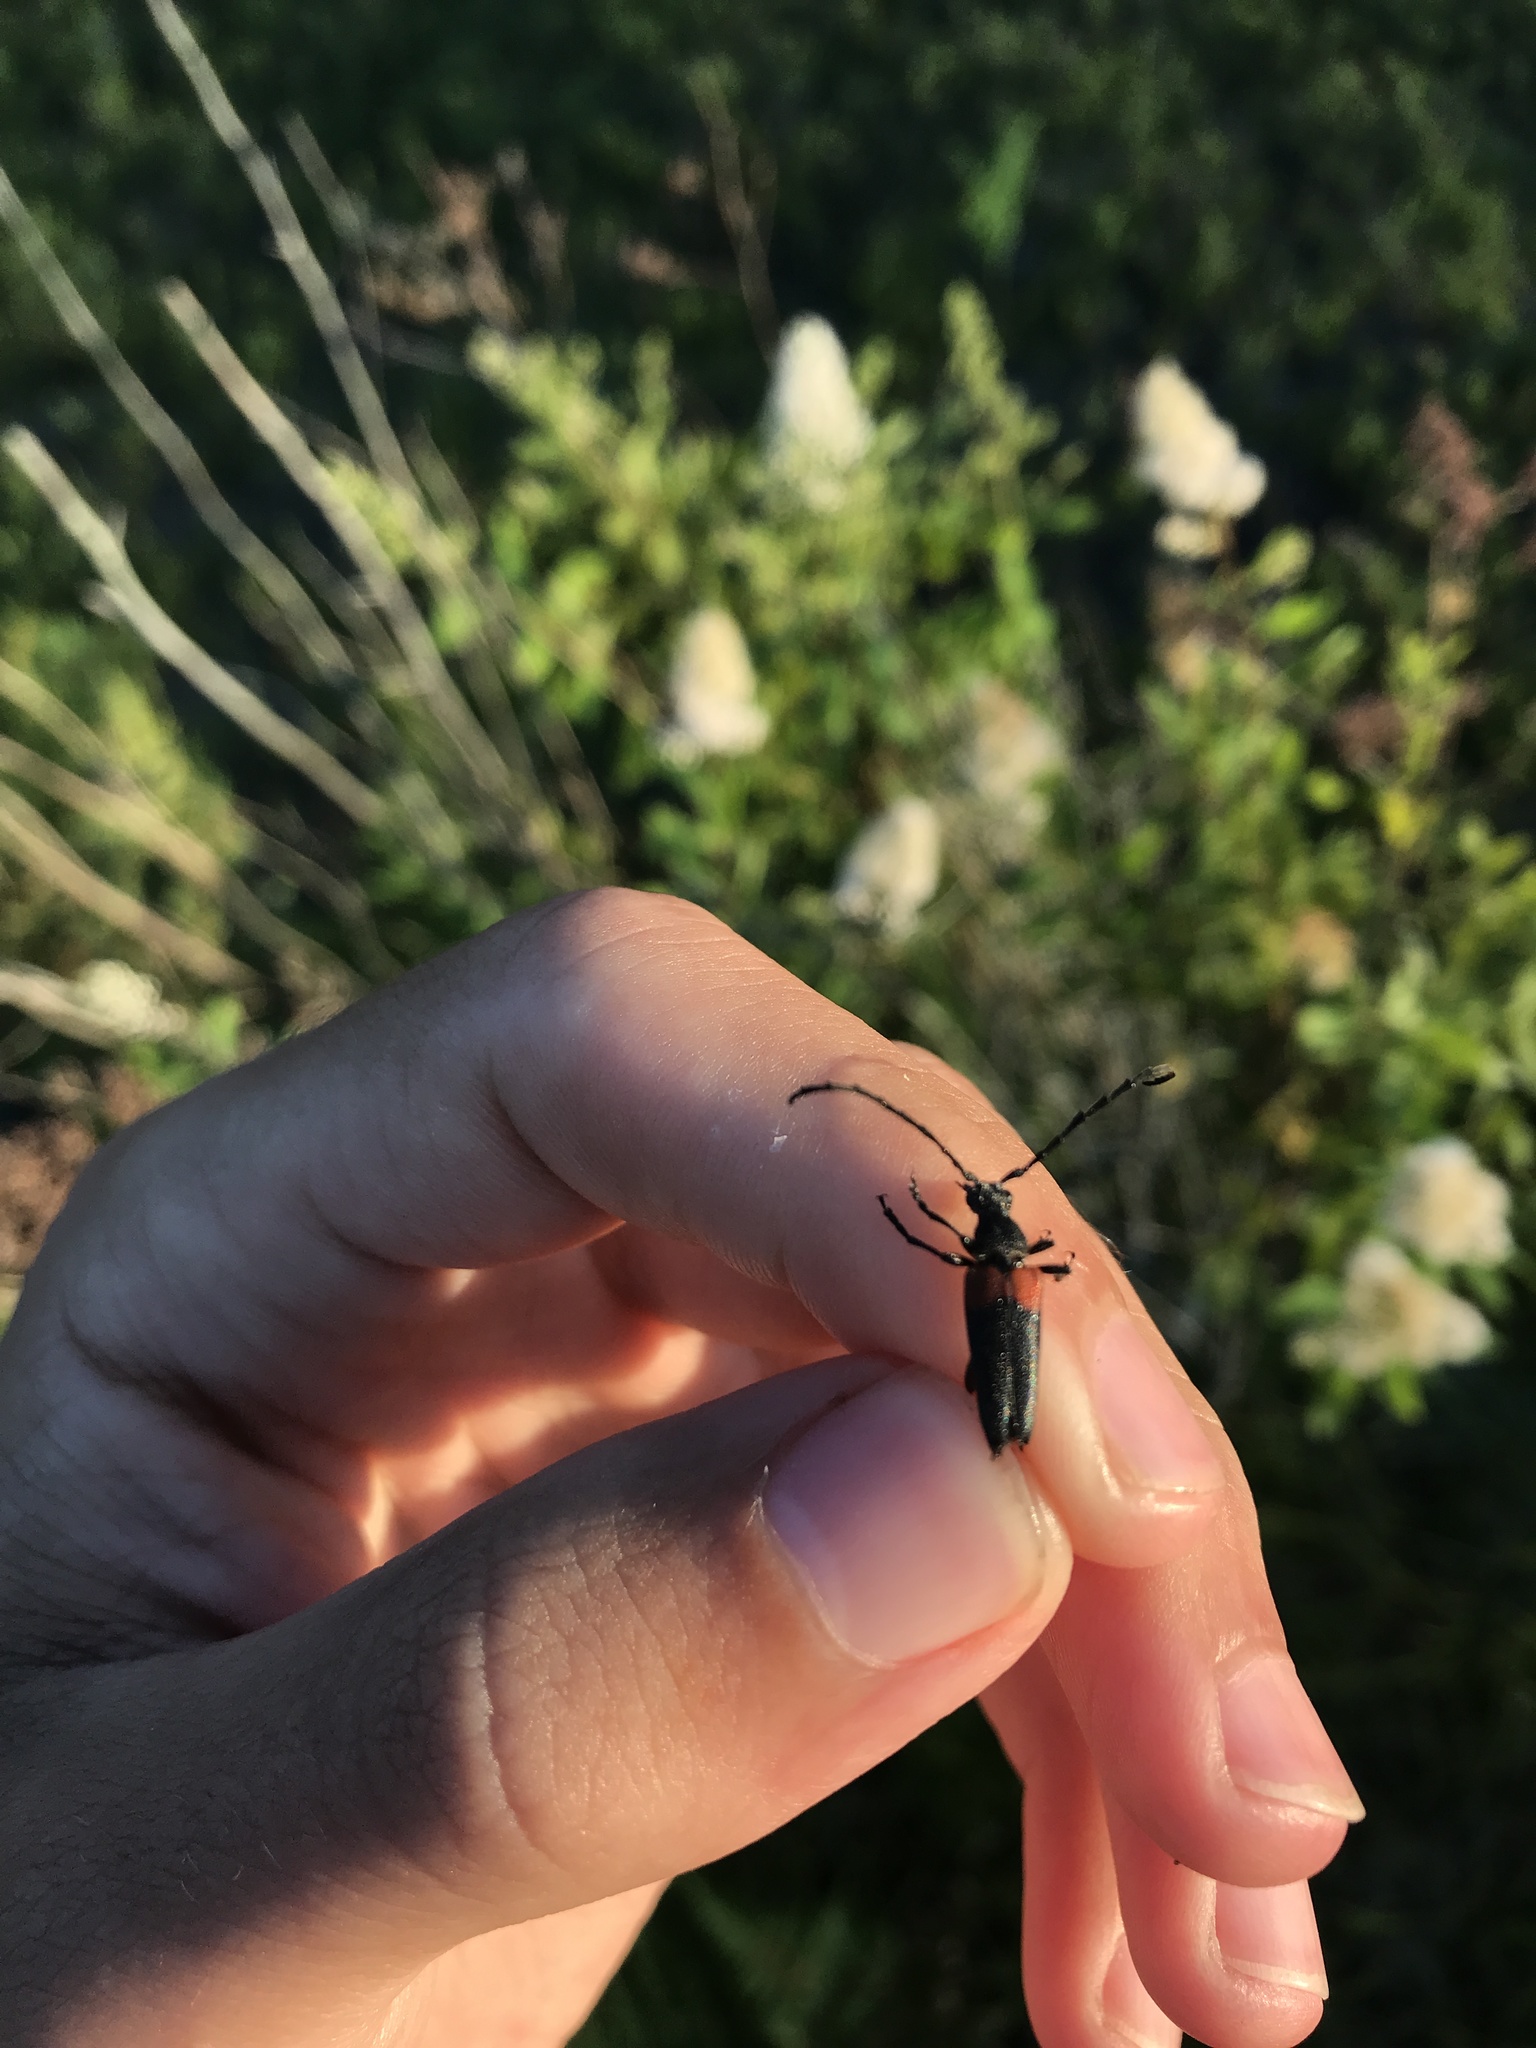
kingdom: Animalia
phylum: Arthropoda
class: Insecta
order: Coleoptera
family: Cerambycidae
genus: Stictoleptura
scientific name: Stictoleptura canadensis
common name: Red-shouldered pine borer
